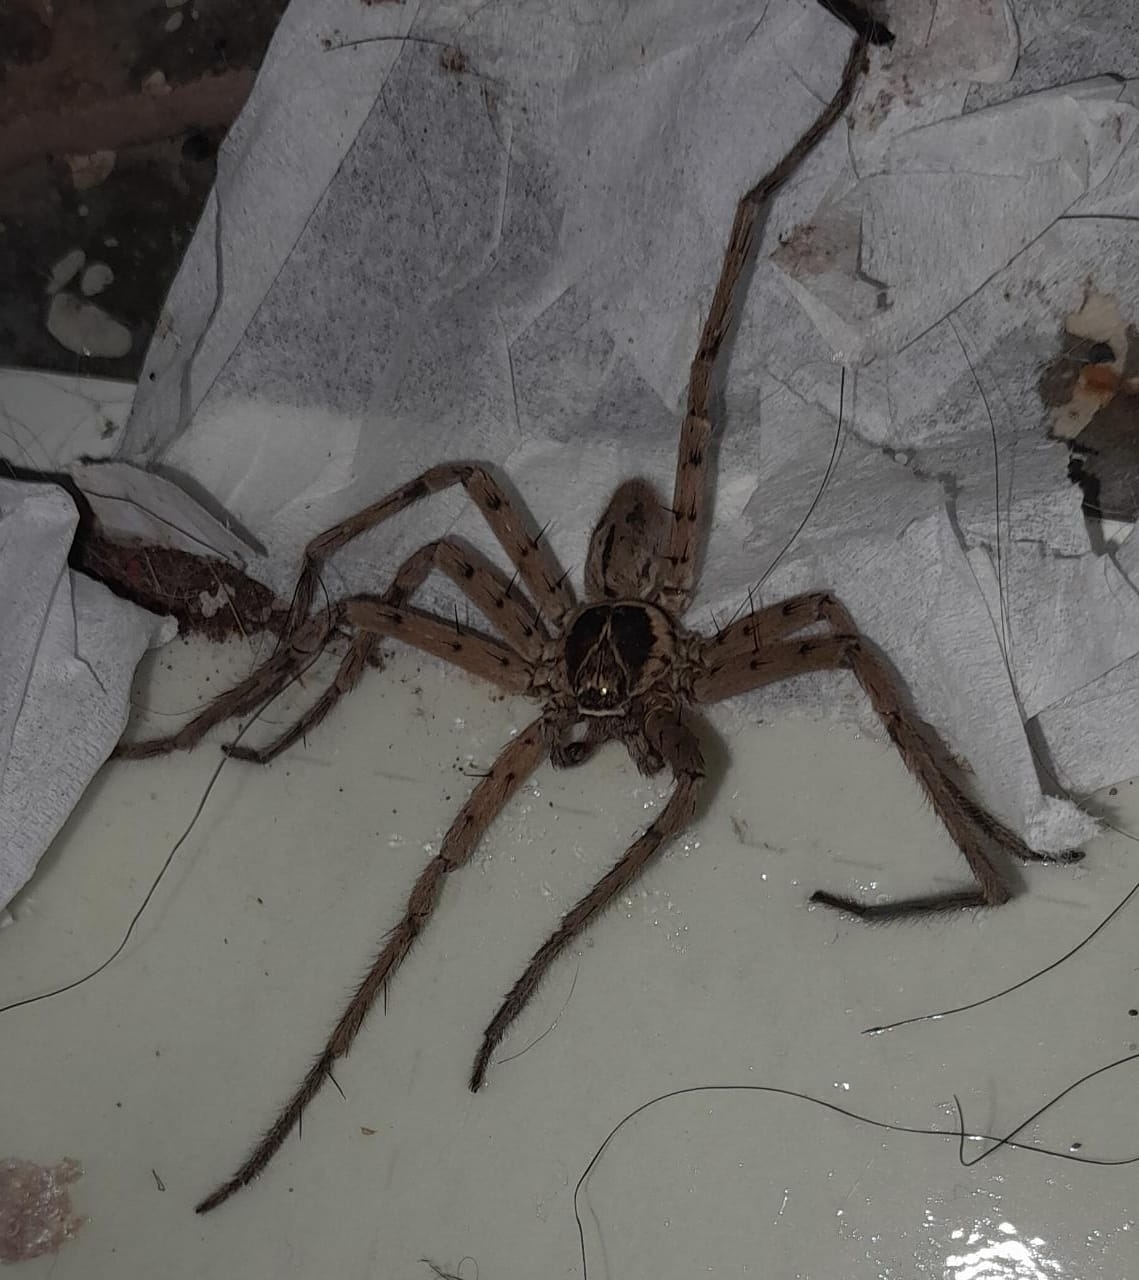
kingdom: Animalia
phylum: Arthropoda
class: Arachnida
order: Araneae
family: Sparassidae
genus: Heteropoda
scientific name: Heteropoda venatoria
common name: Huntsman spider
